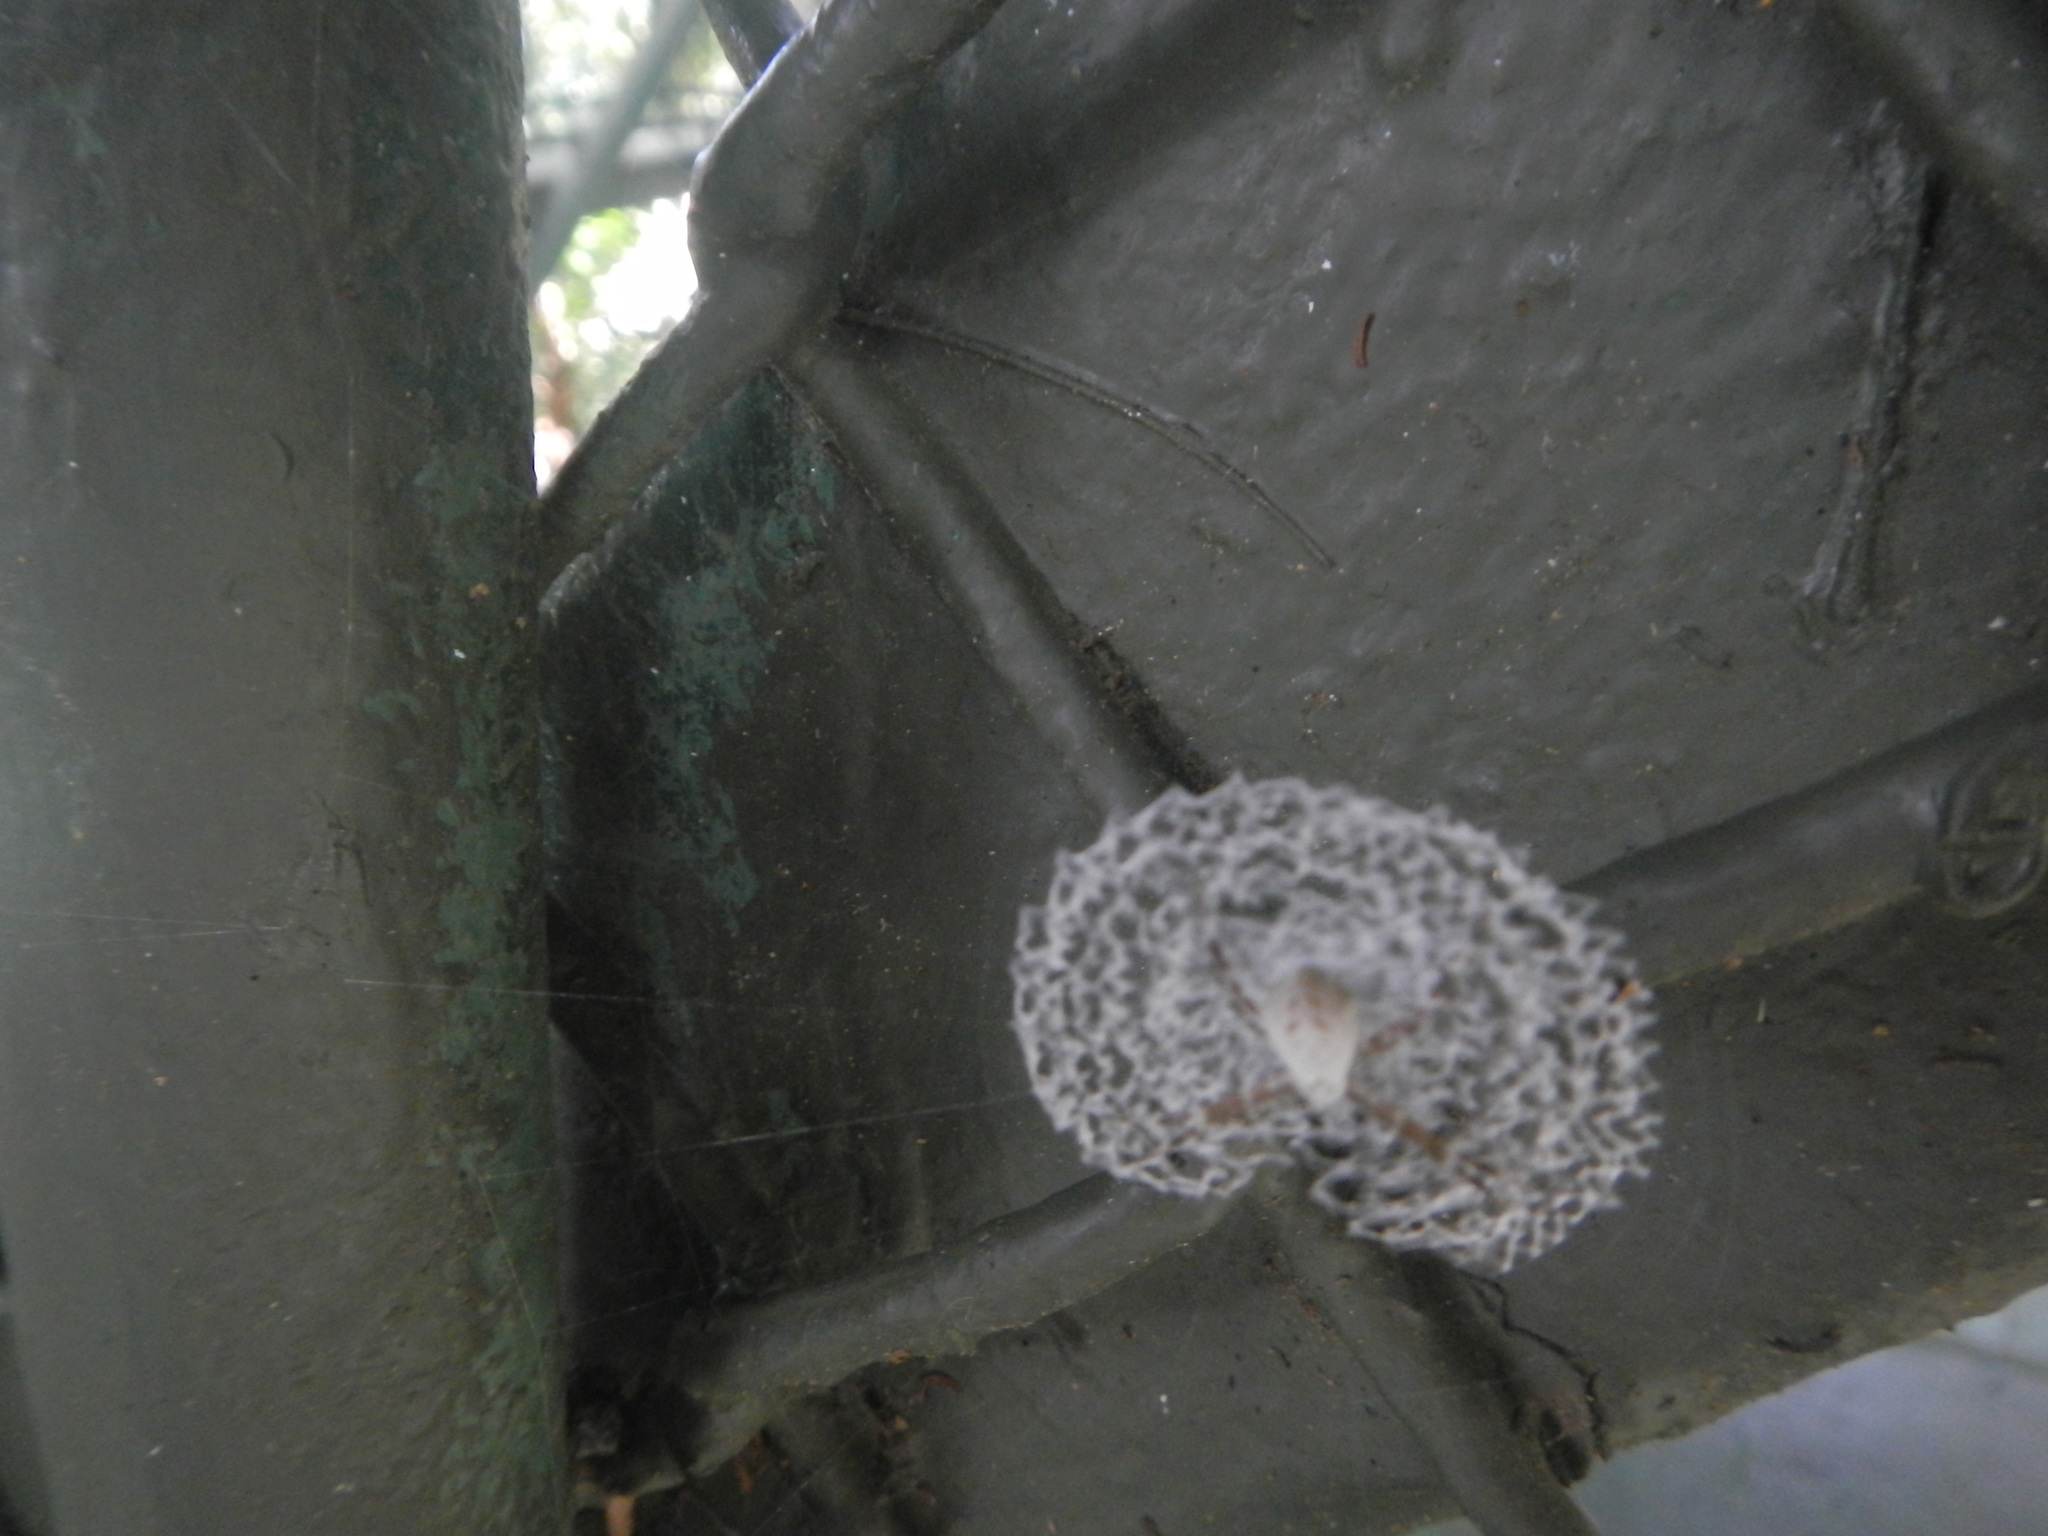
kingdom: Animalia
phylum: Arthropoda
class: Arachnida
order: Araneae
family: Araneidae
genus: Argiope
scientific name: Argiope submaronica
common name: Orb weavers
